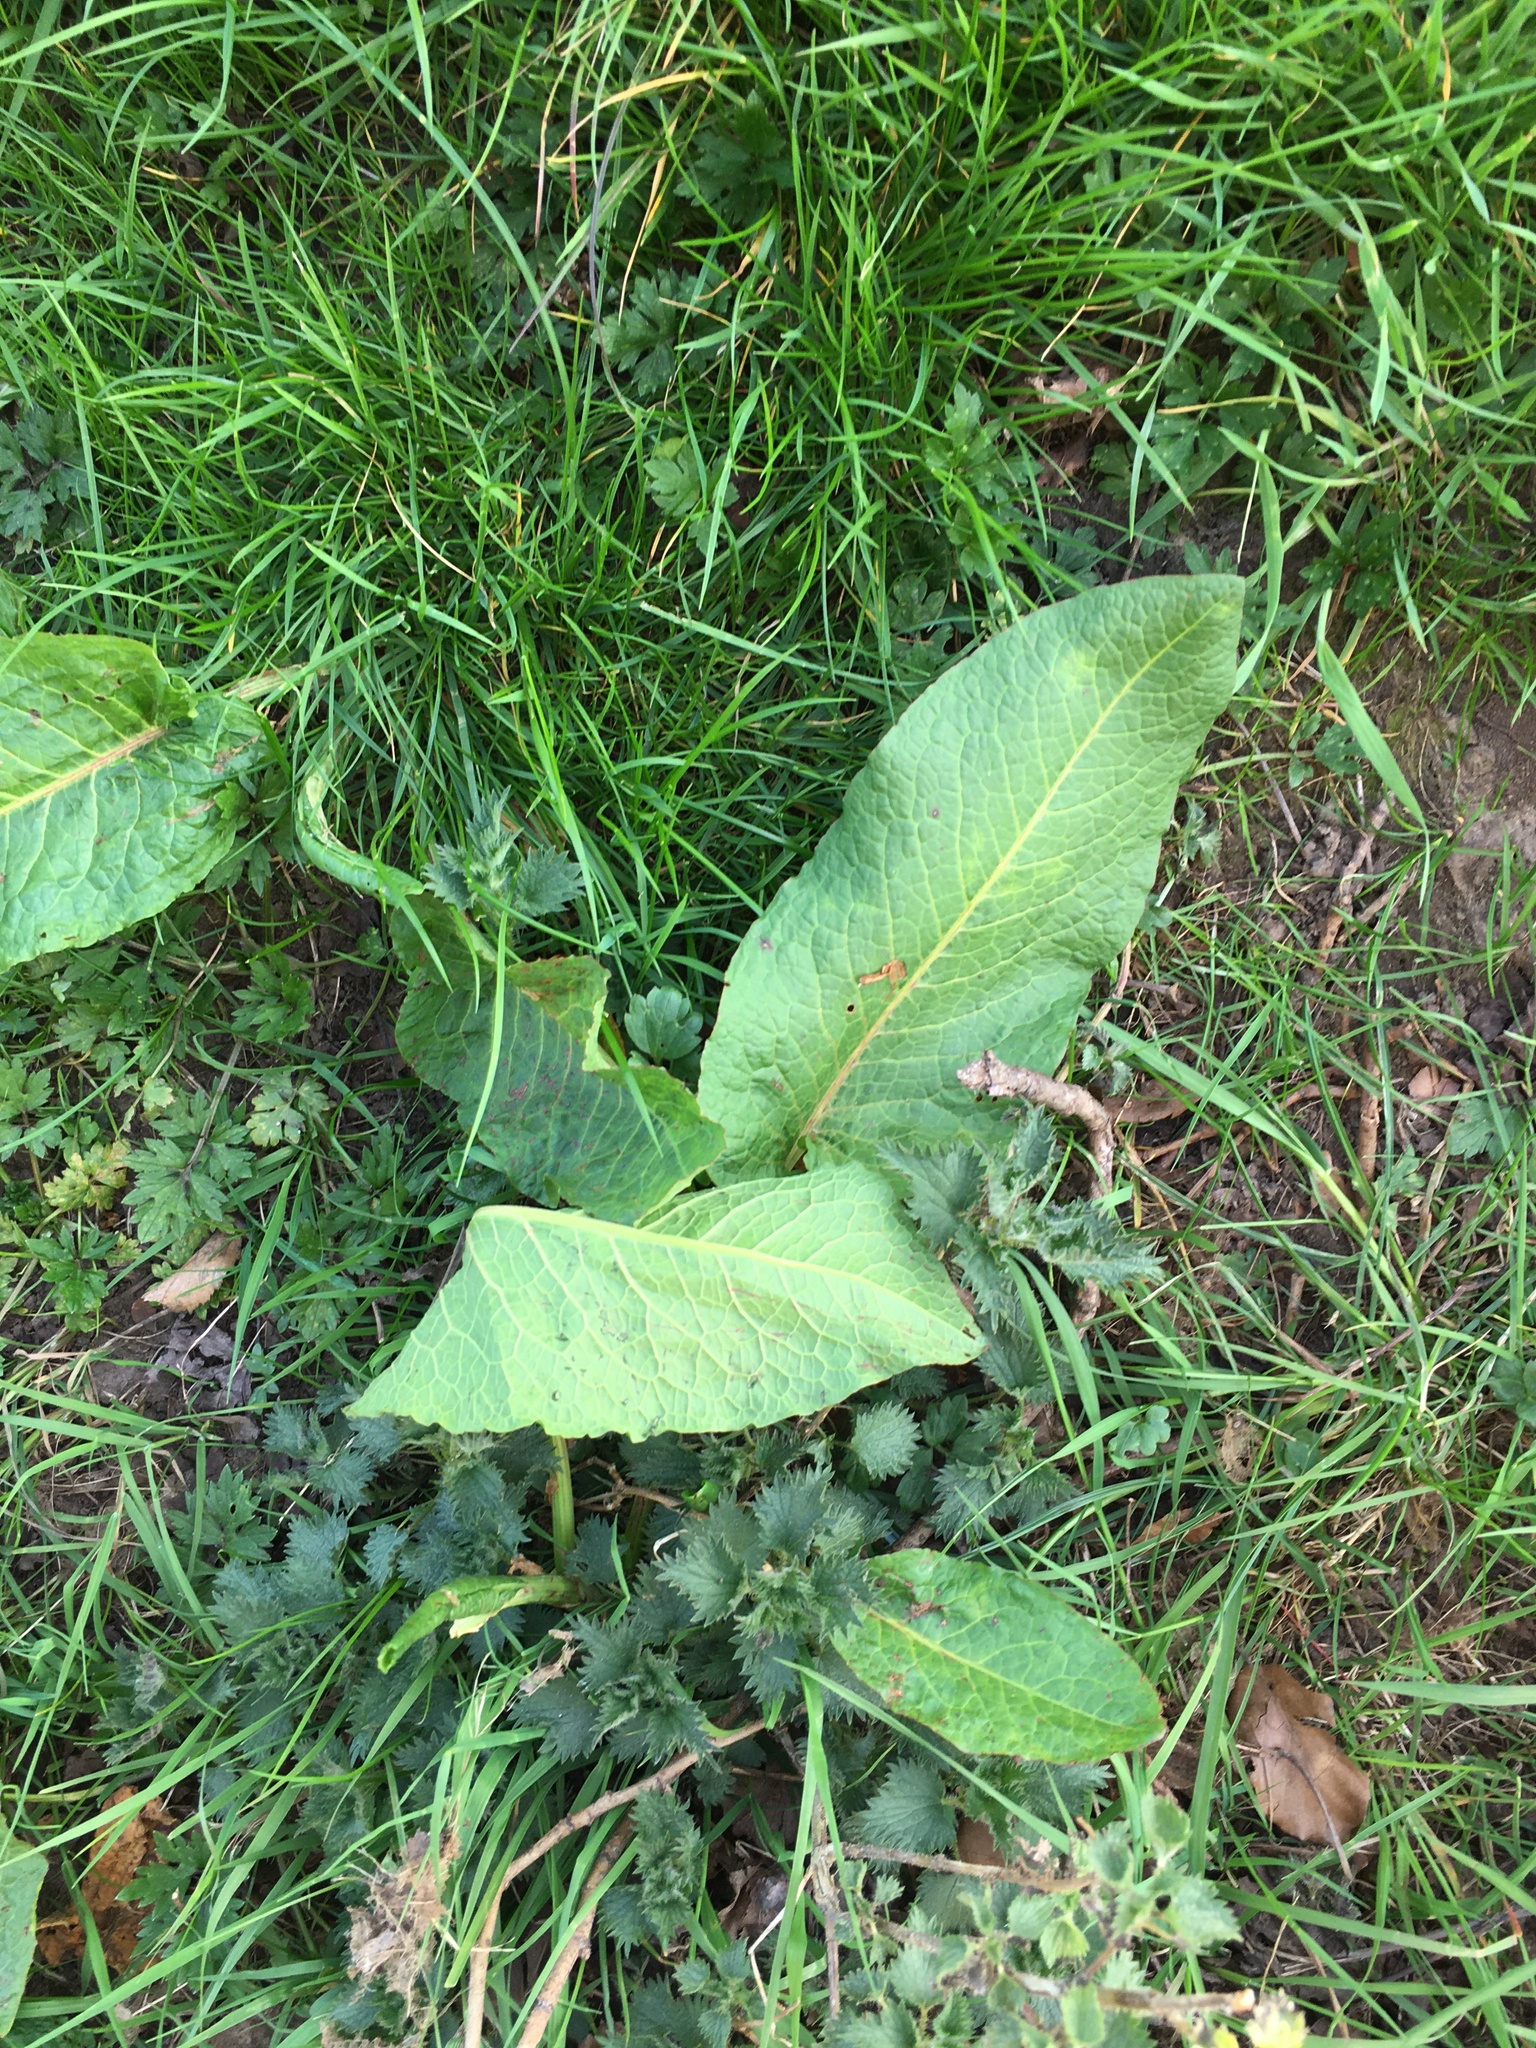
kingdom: Plantae
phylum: Tracheophyta
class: Magnoliopsida
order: Caryophyllales
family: Polygonaceae
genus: Rumex
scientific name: Rumex obtusifolius
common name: Bitter dock
